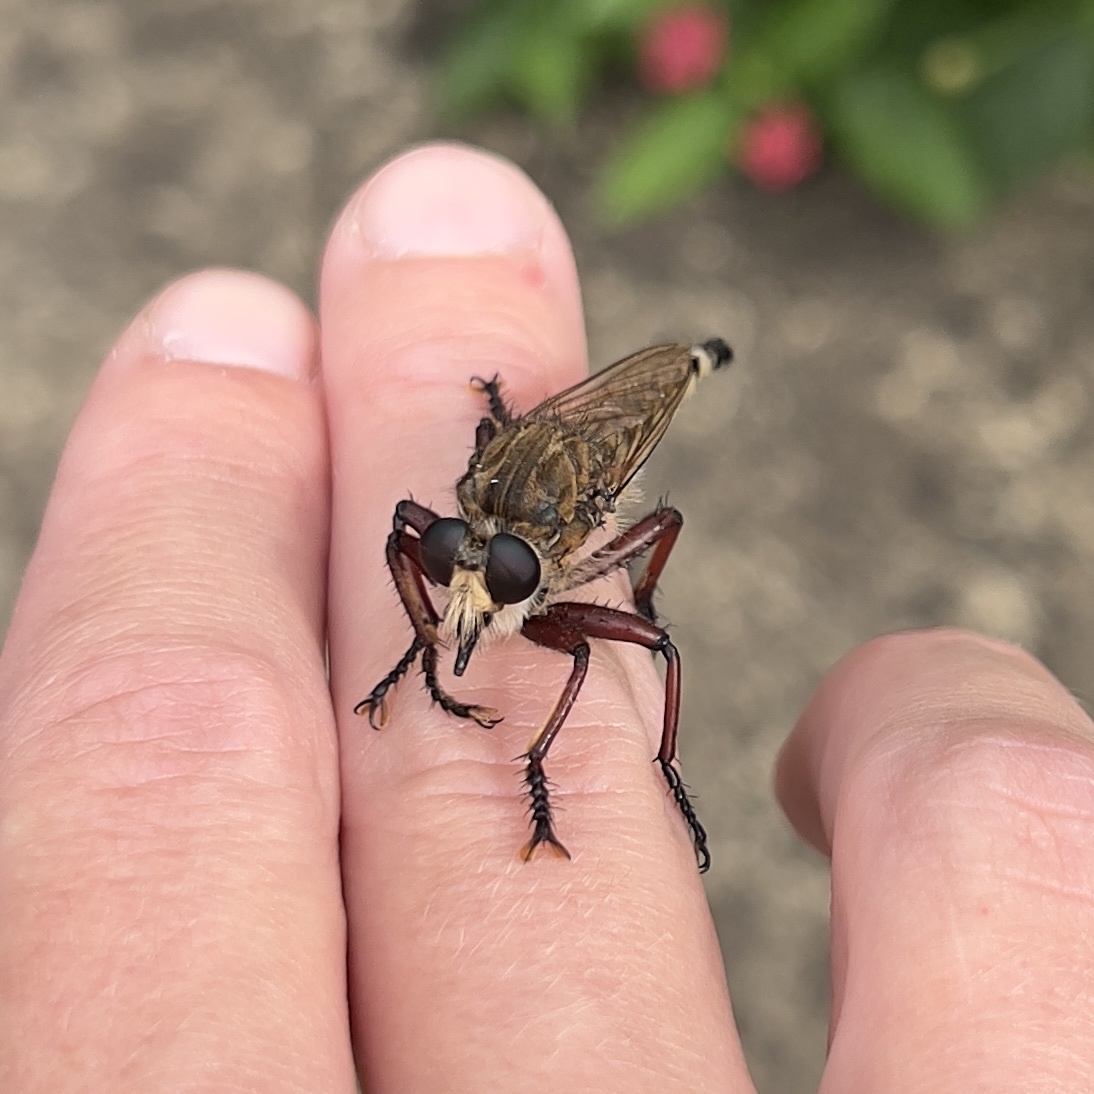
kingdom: Animalia
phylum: Arthropoda
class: Insecta
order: Diptera
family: Asilidae
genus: Promachus
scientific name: Promachus hinei
